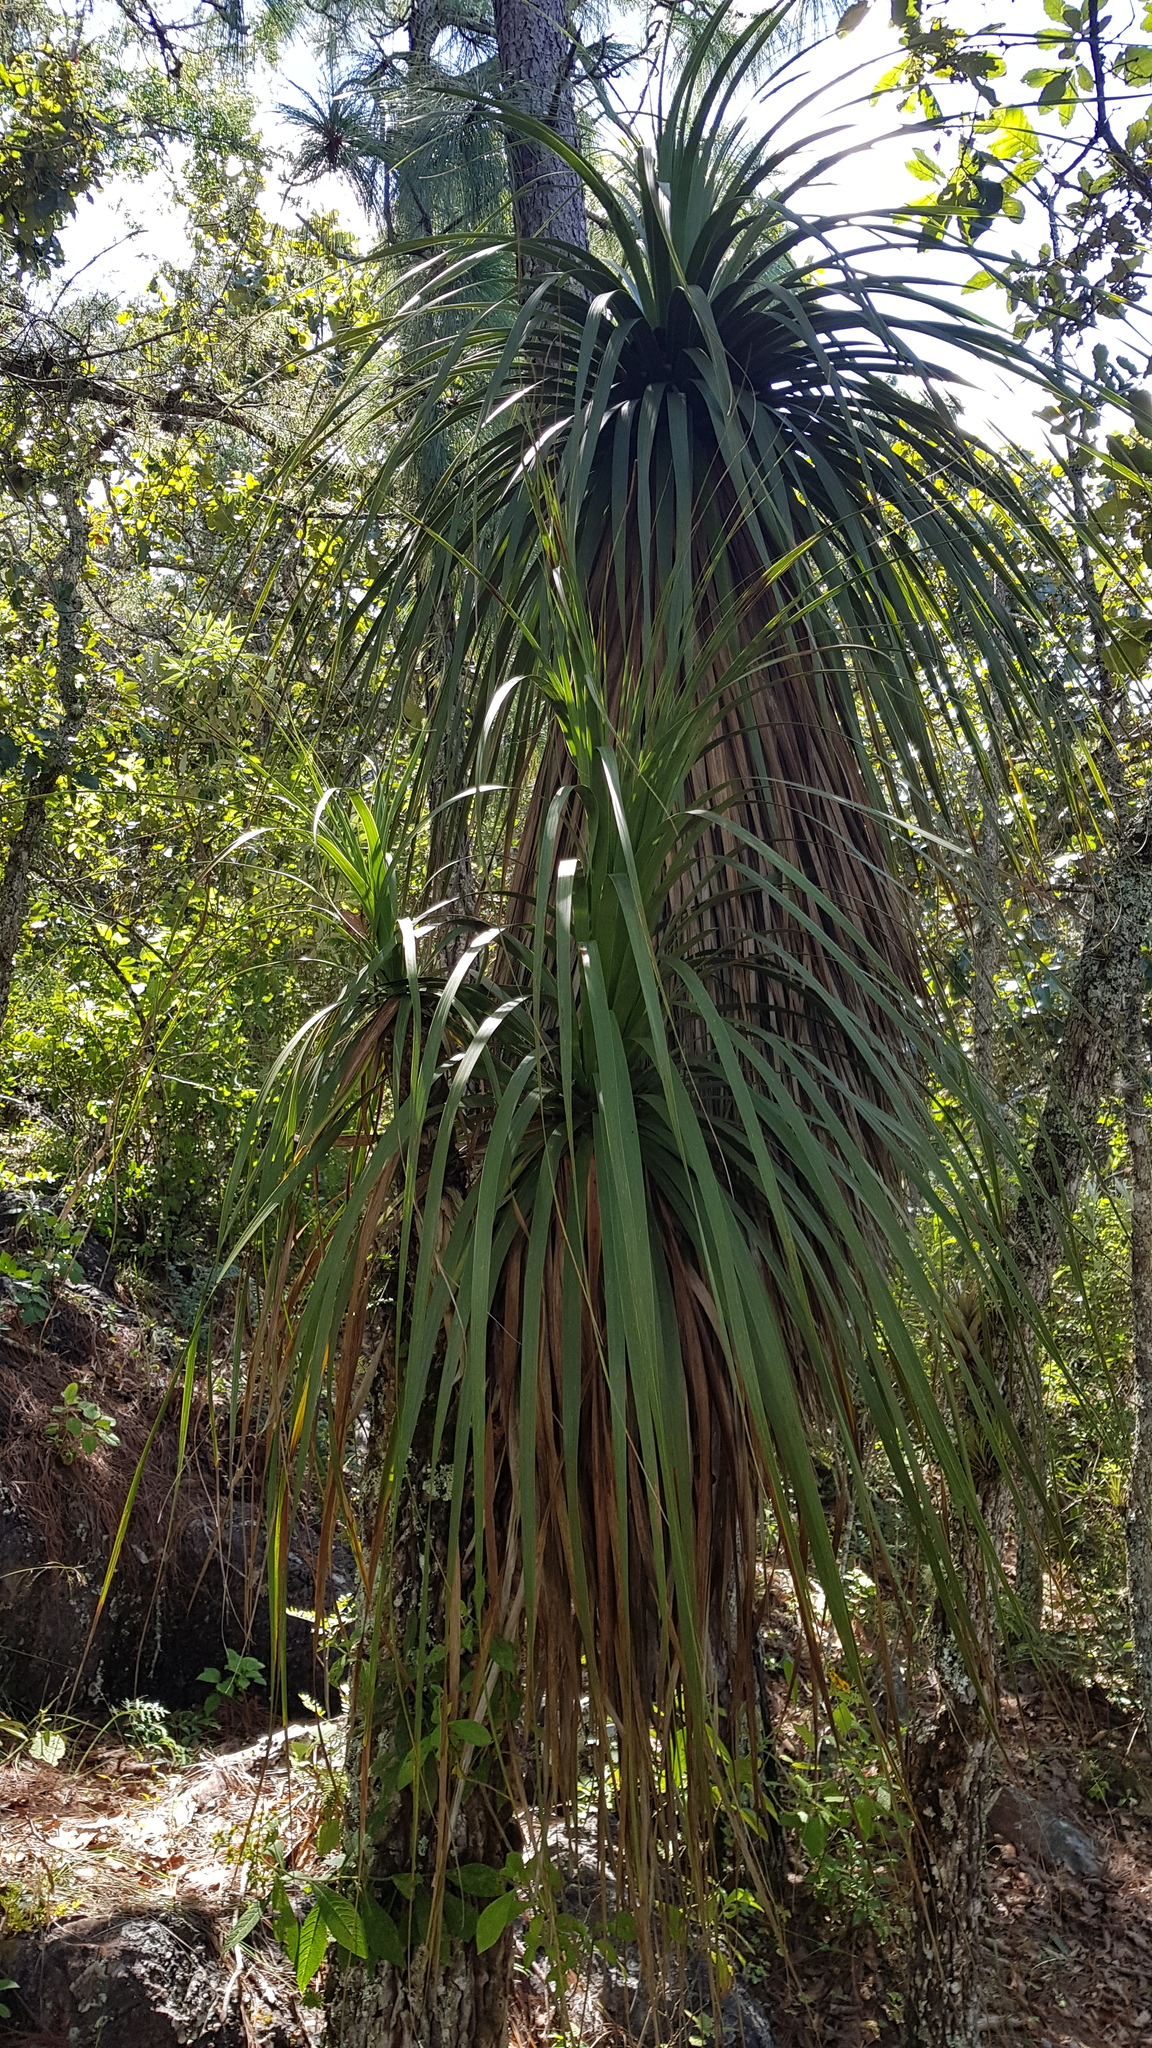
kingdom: Plantae
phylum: Tracheophyta
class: Liliopsida
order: Asparagales
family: Asparagaceae
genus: Nolina
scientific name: Nolina parviflora
